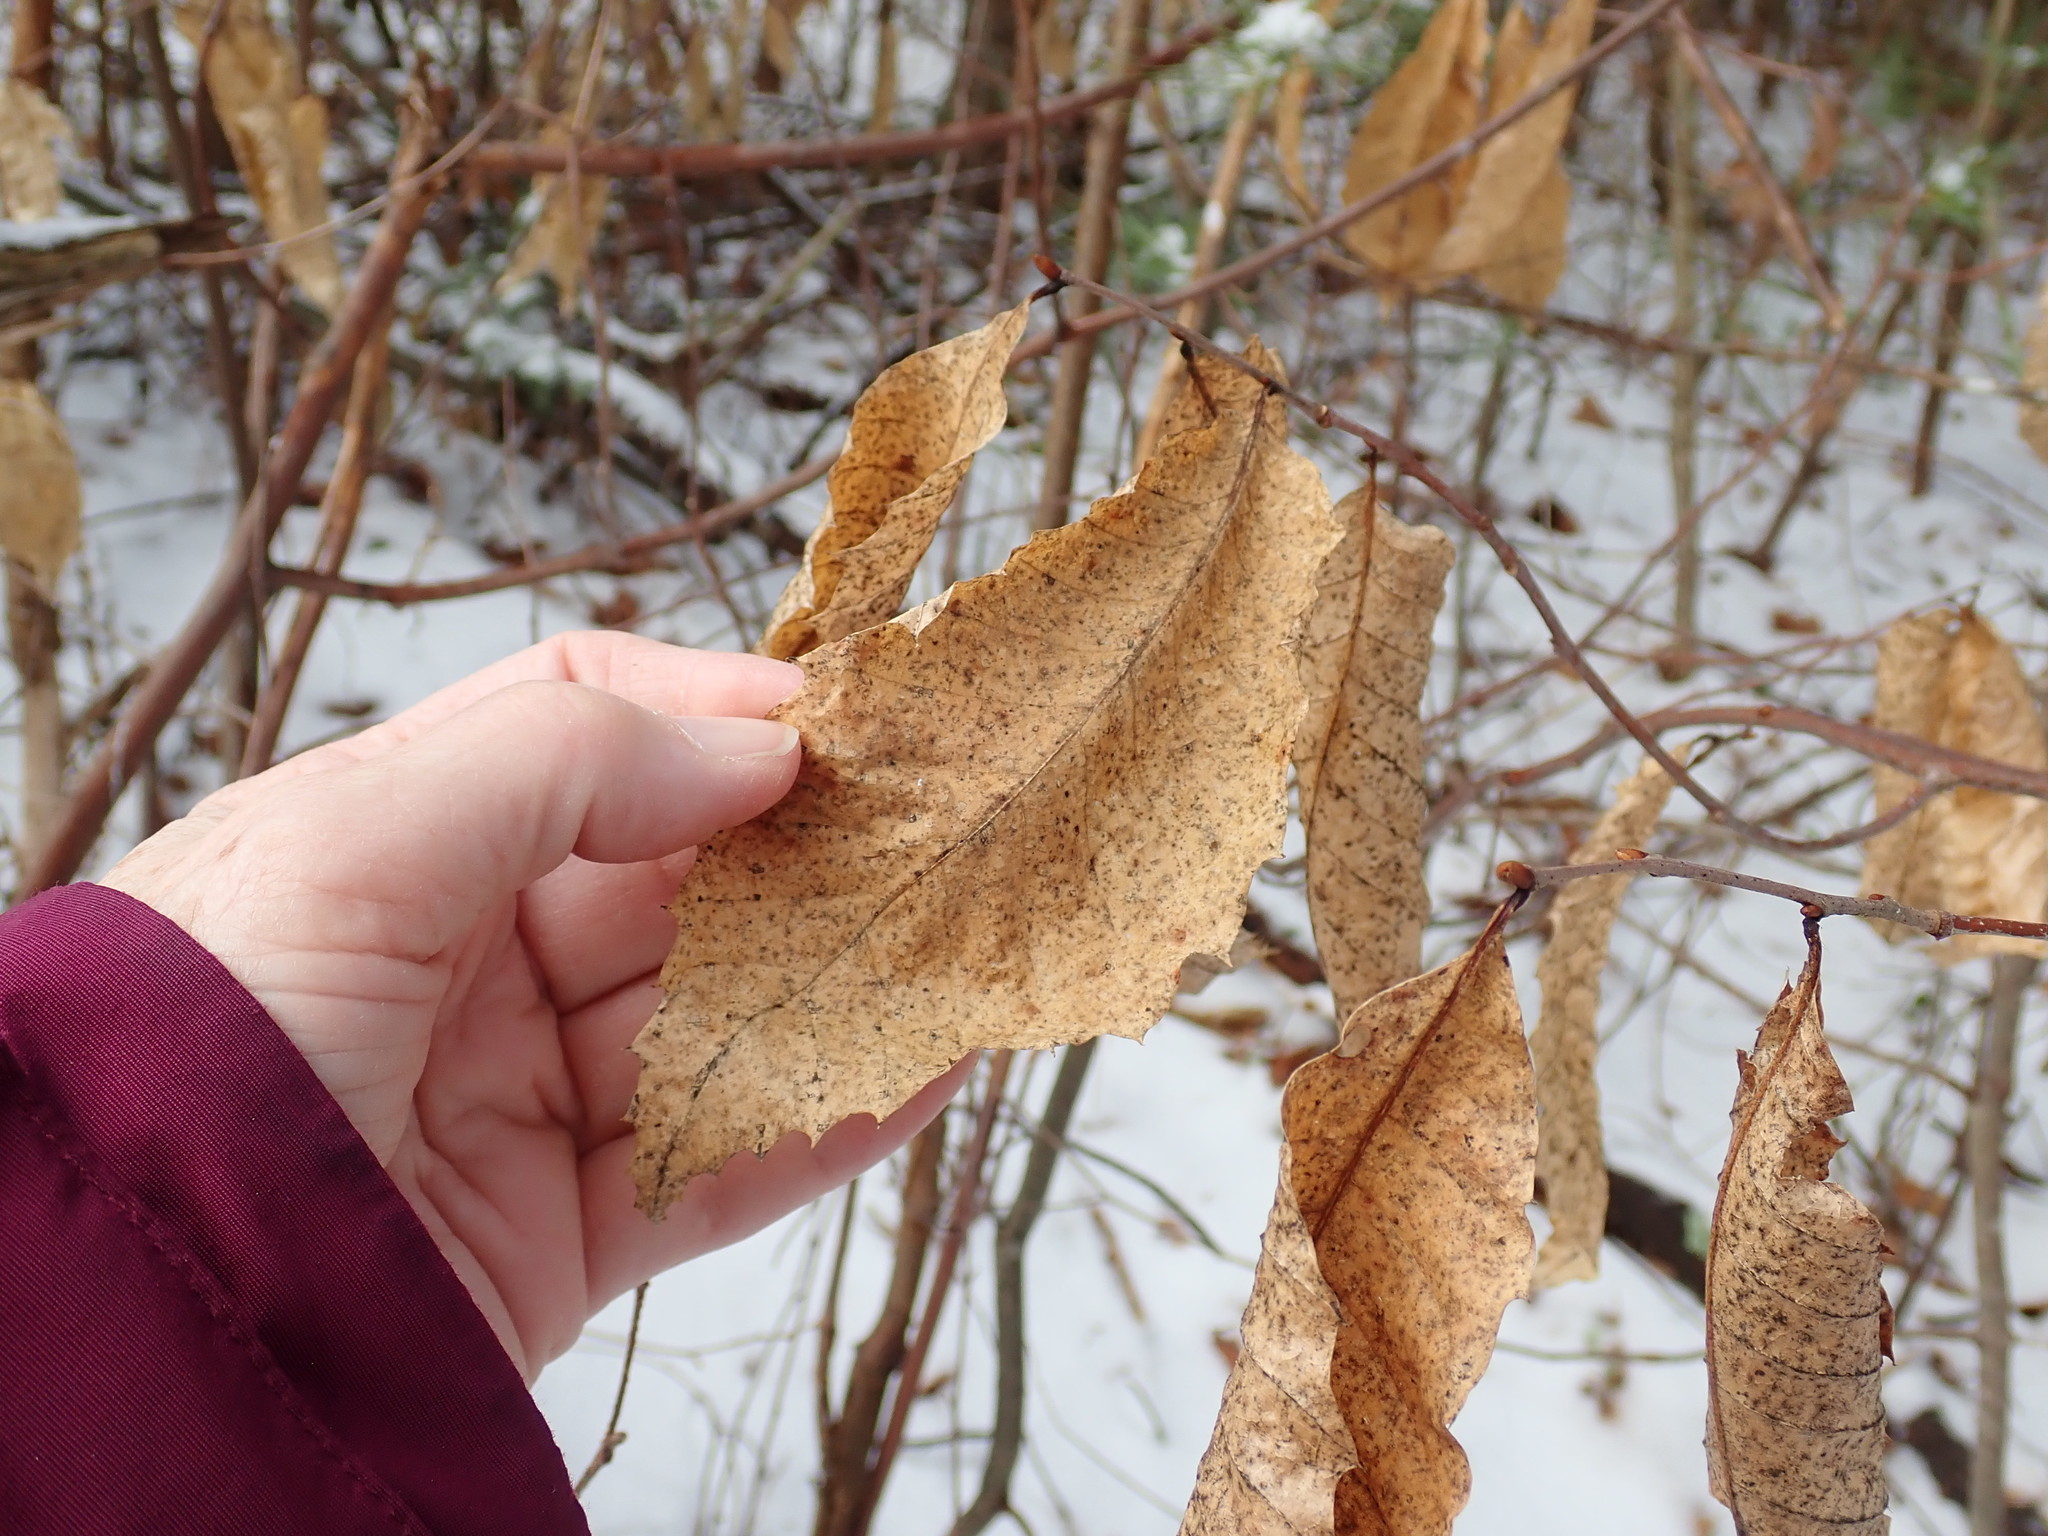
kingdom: Plantae
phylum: Tracheophyta
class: Magnoliopsida
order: Fagales
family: Fagaceae
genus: Castanea
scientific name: Castanea dentata
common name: American chestnut
